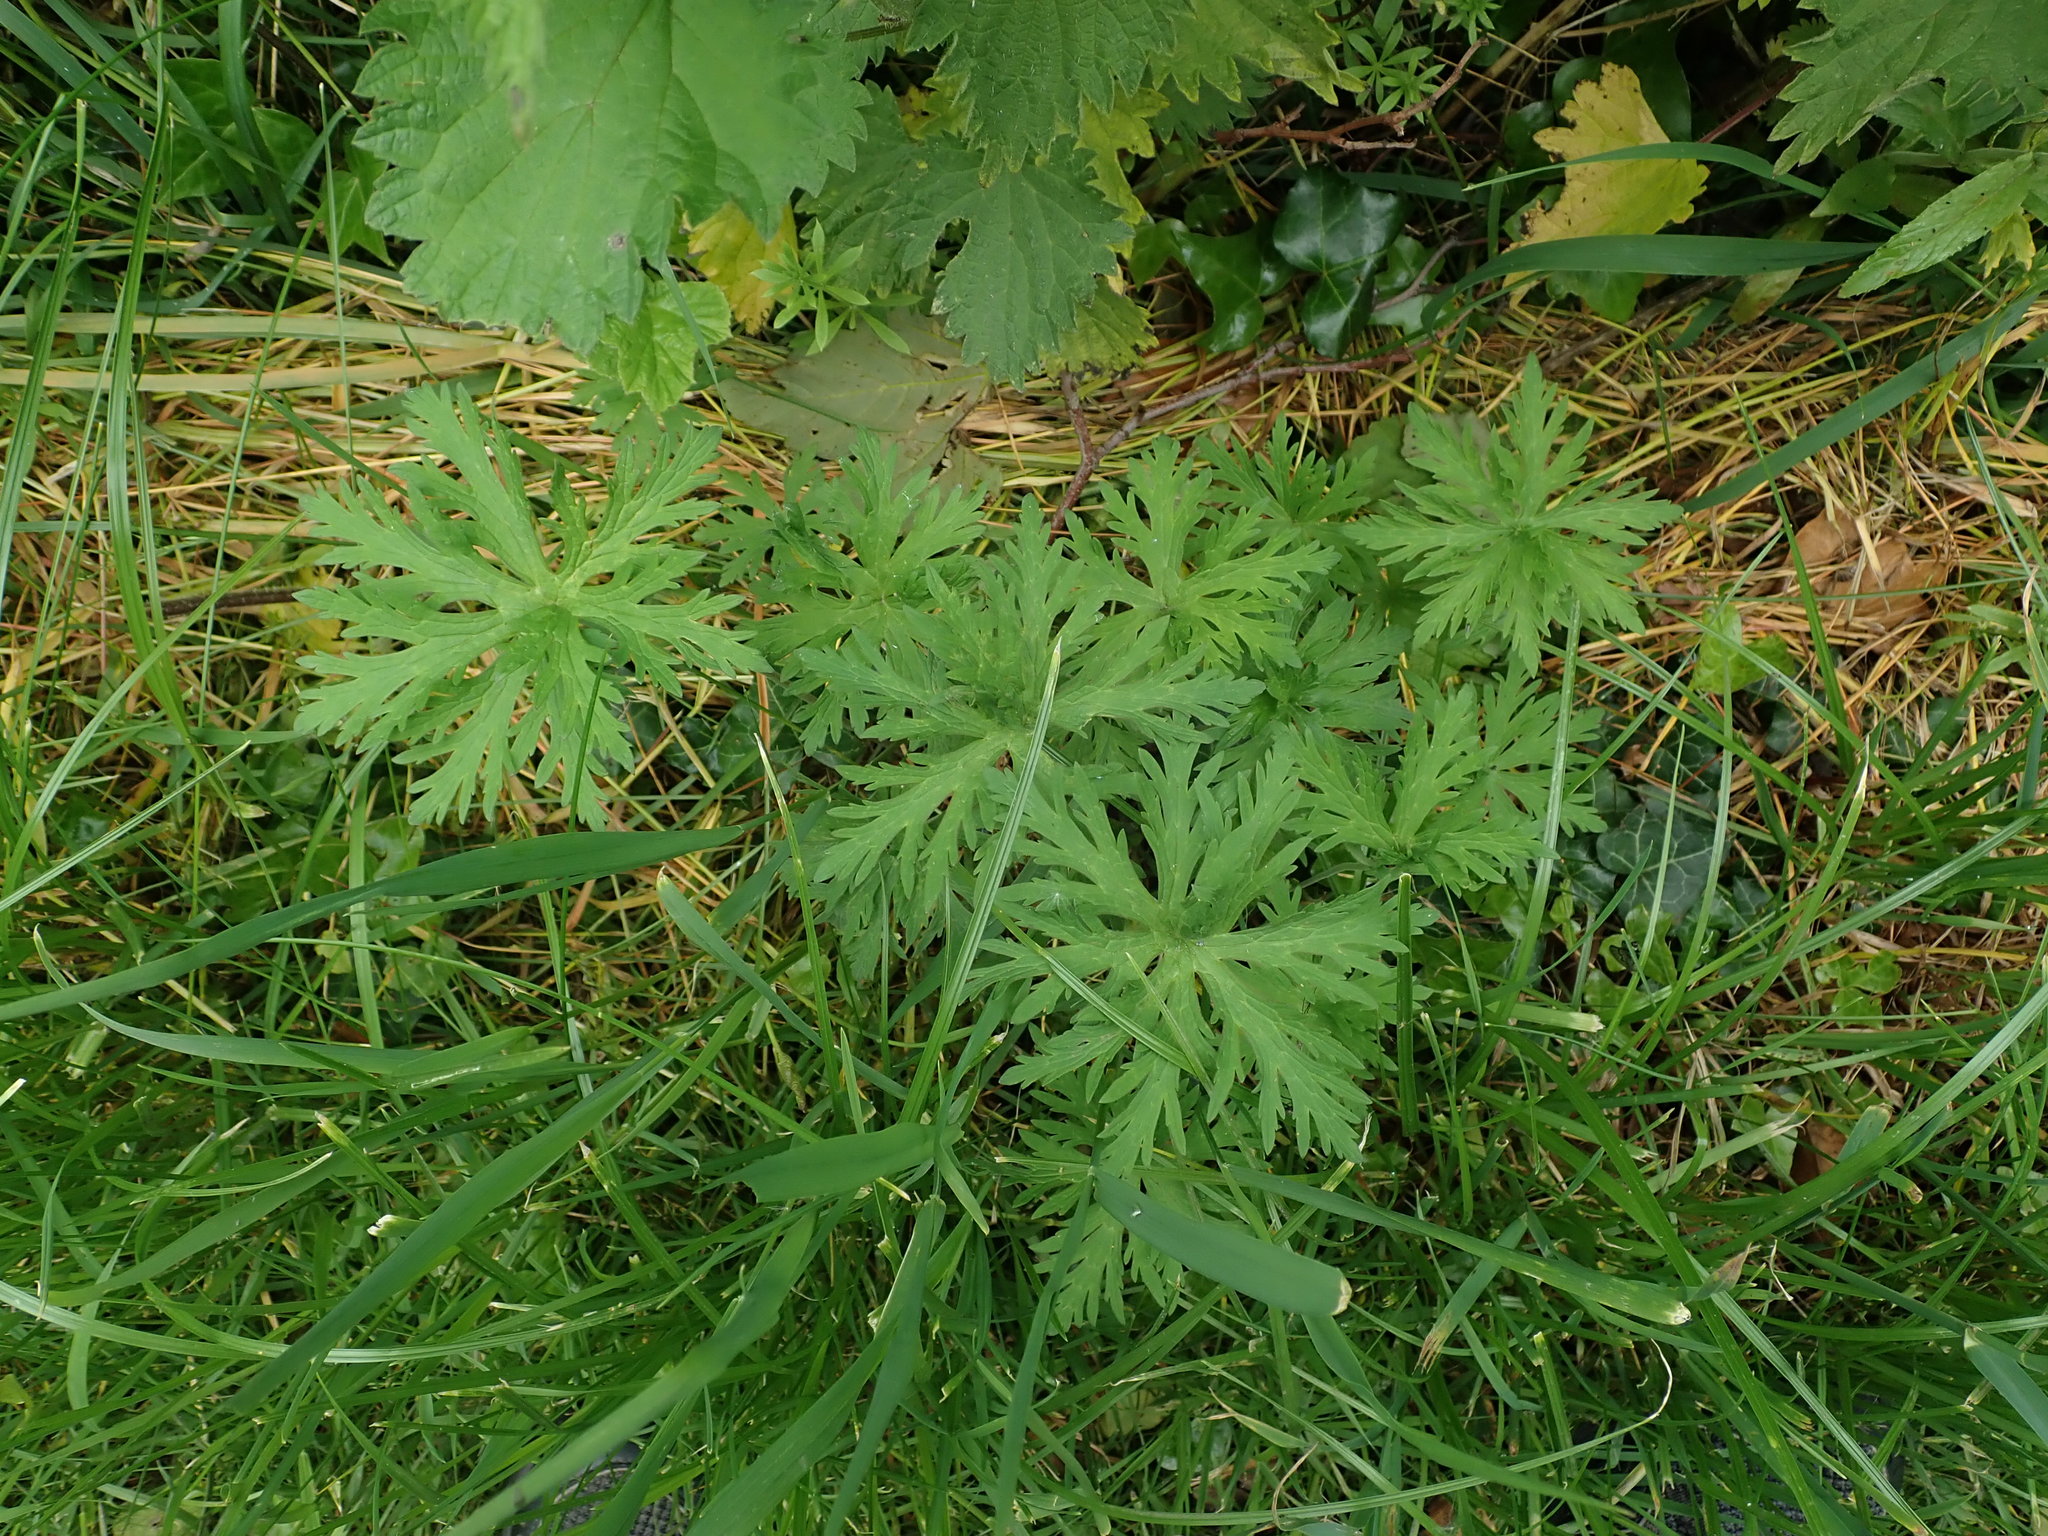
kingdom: Plantae
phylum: Tracheophyta
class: Magnoliopsida
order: Geraniales
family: Geraniaceae
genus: Geranium
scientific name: Geranium pratense
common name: Meadow crane's-bill
